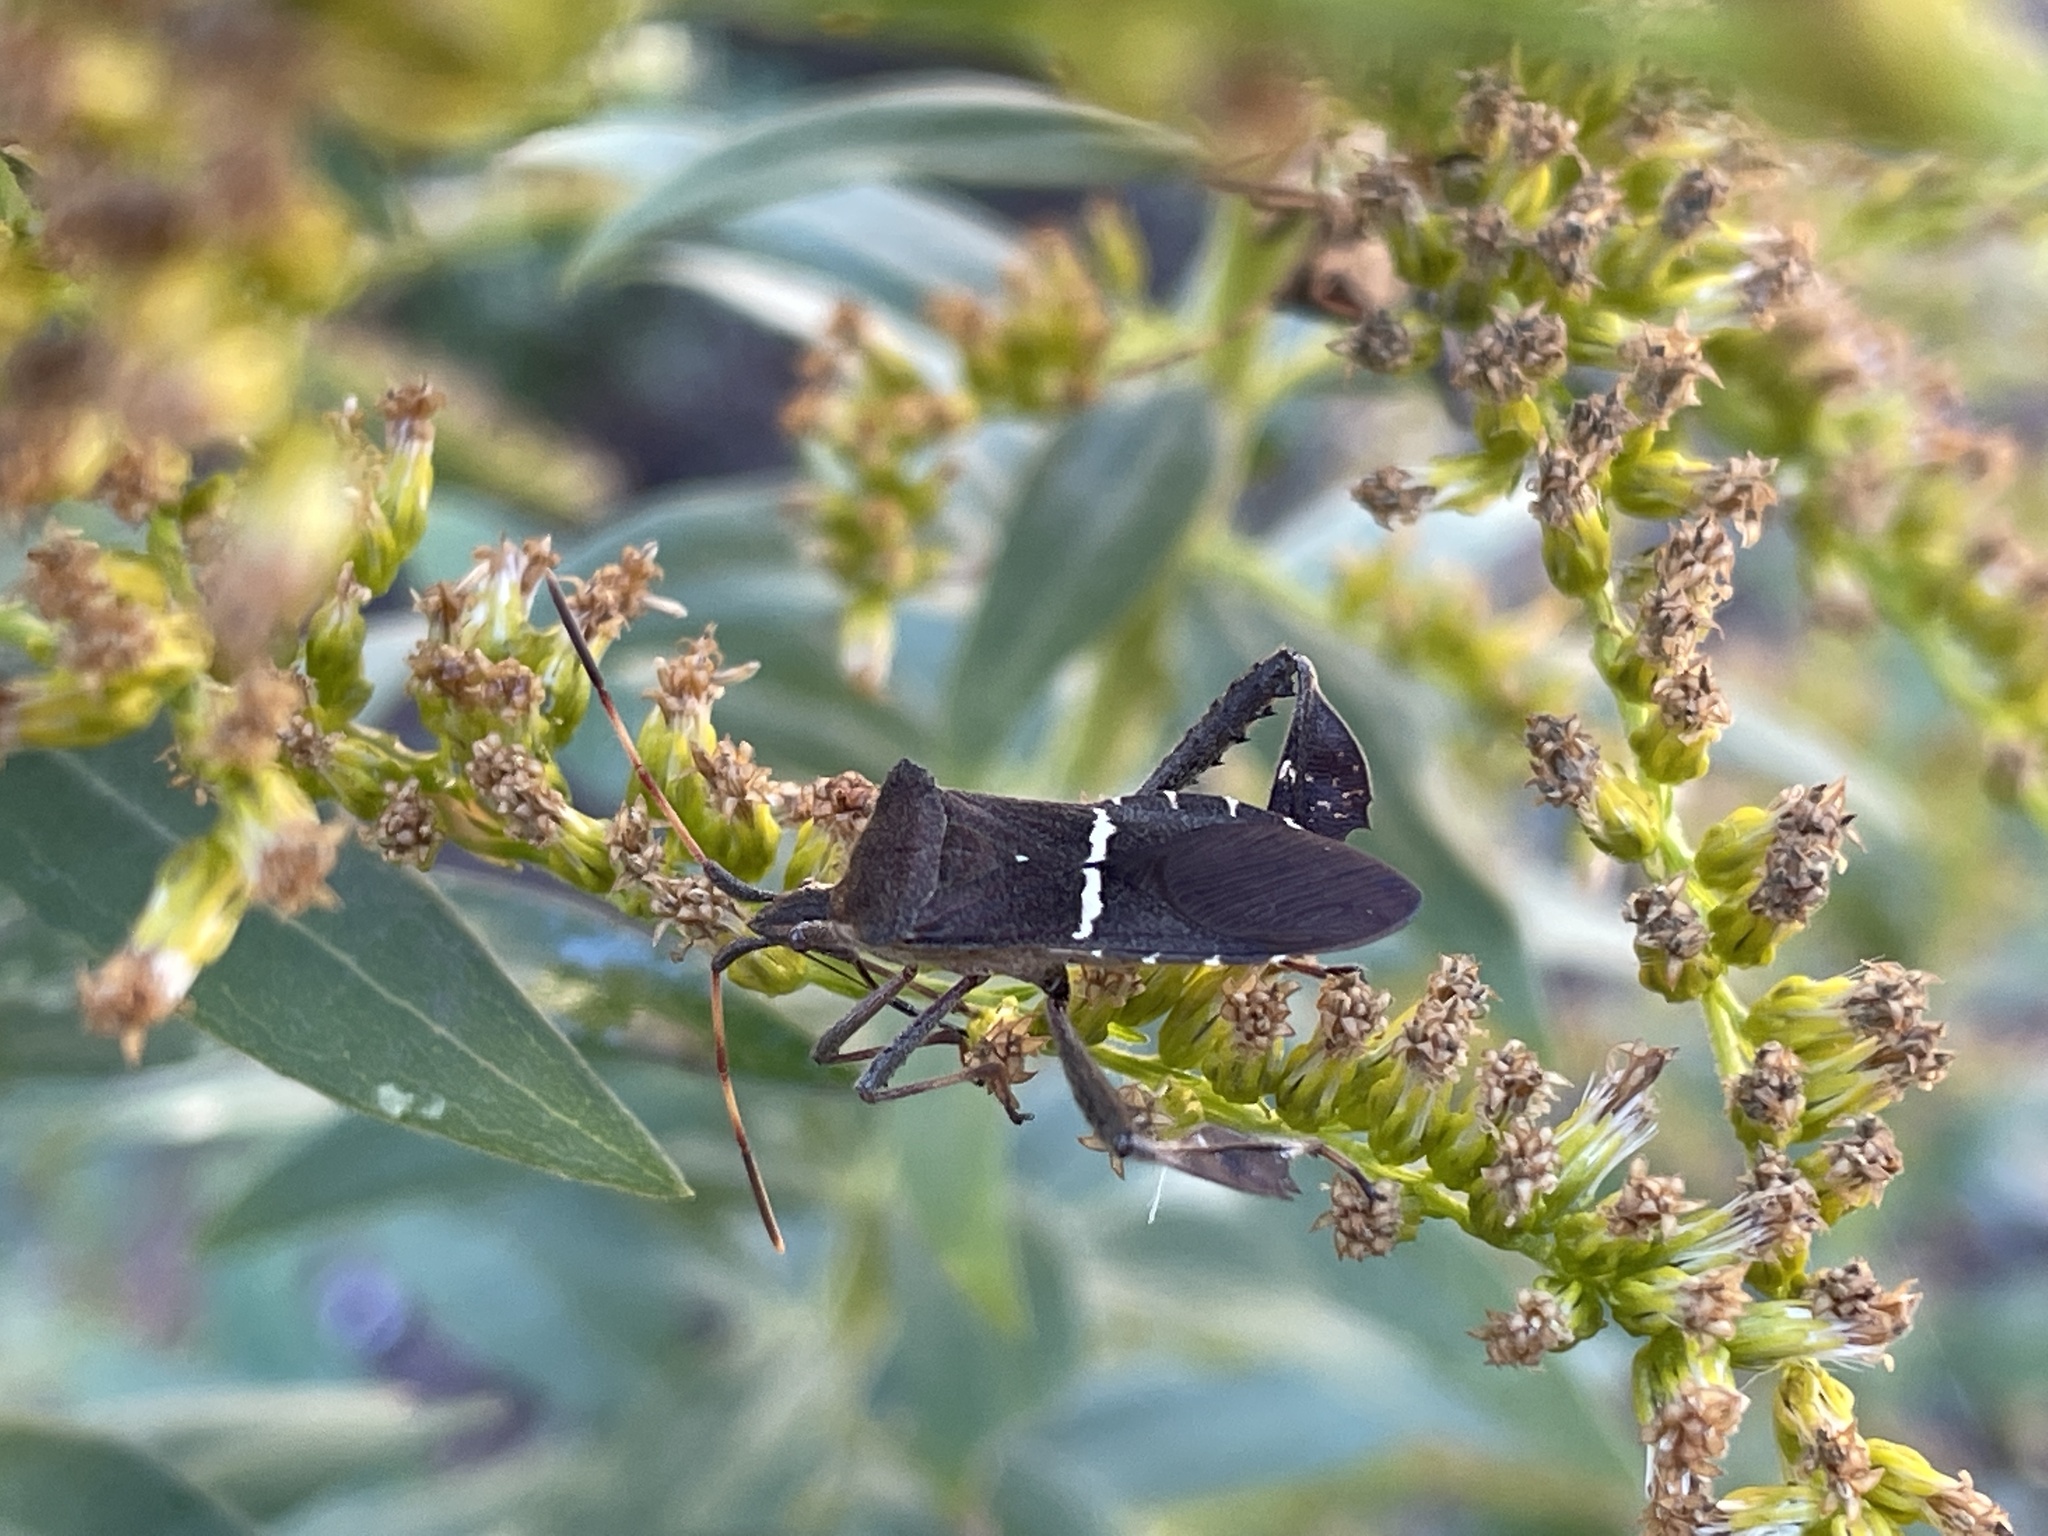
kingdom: Animalia
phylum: Arthropoda
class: Insecta
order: Hemiptera
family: Coreidae
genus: Leptoglossus
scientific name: Leptoglossus phyllopus
